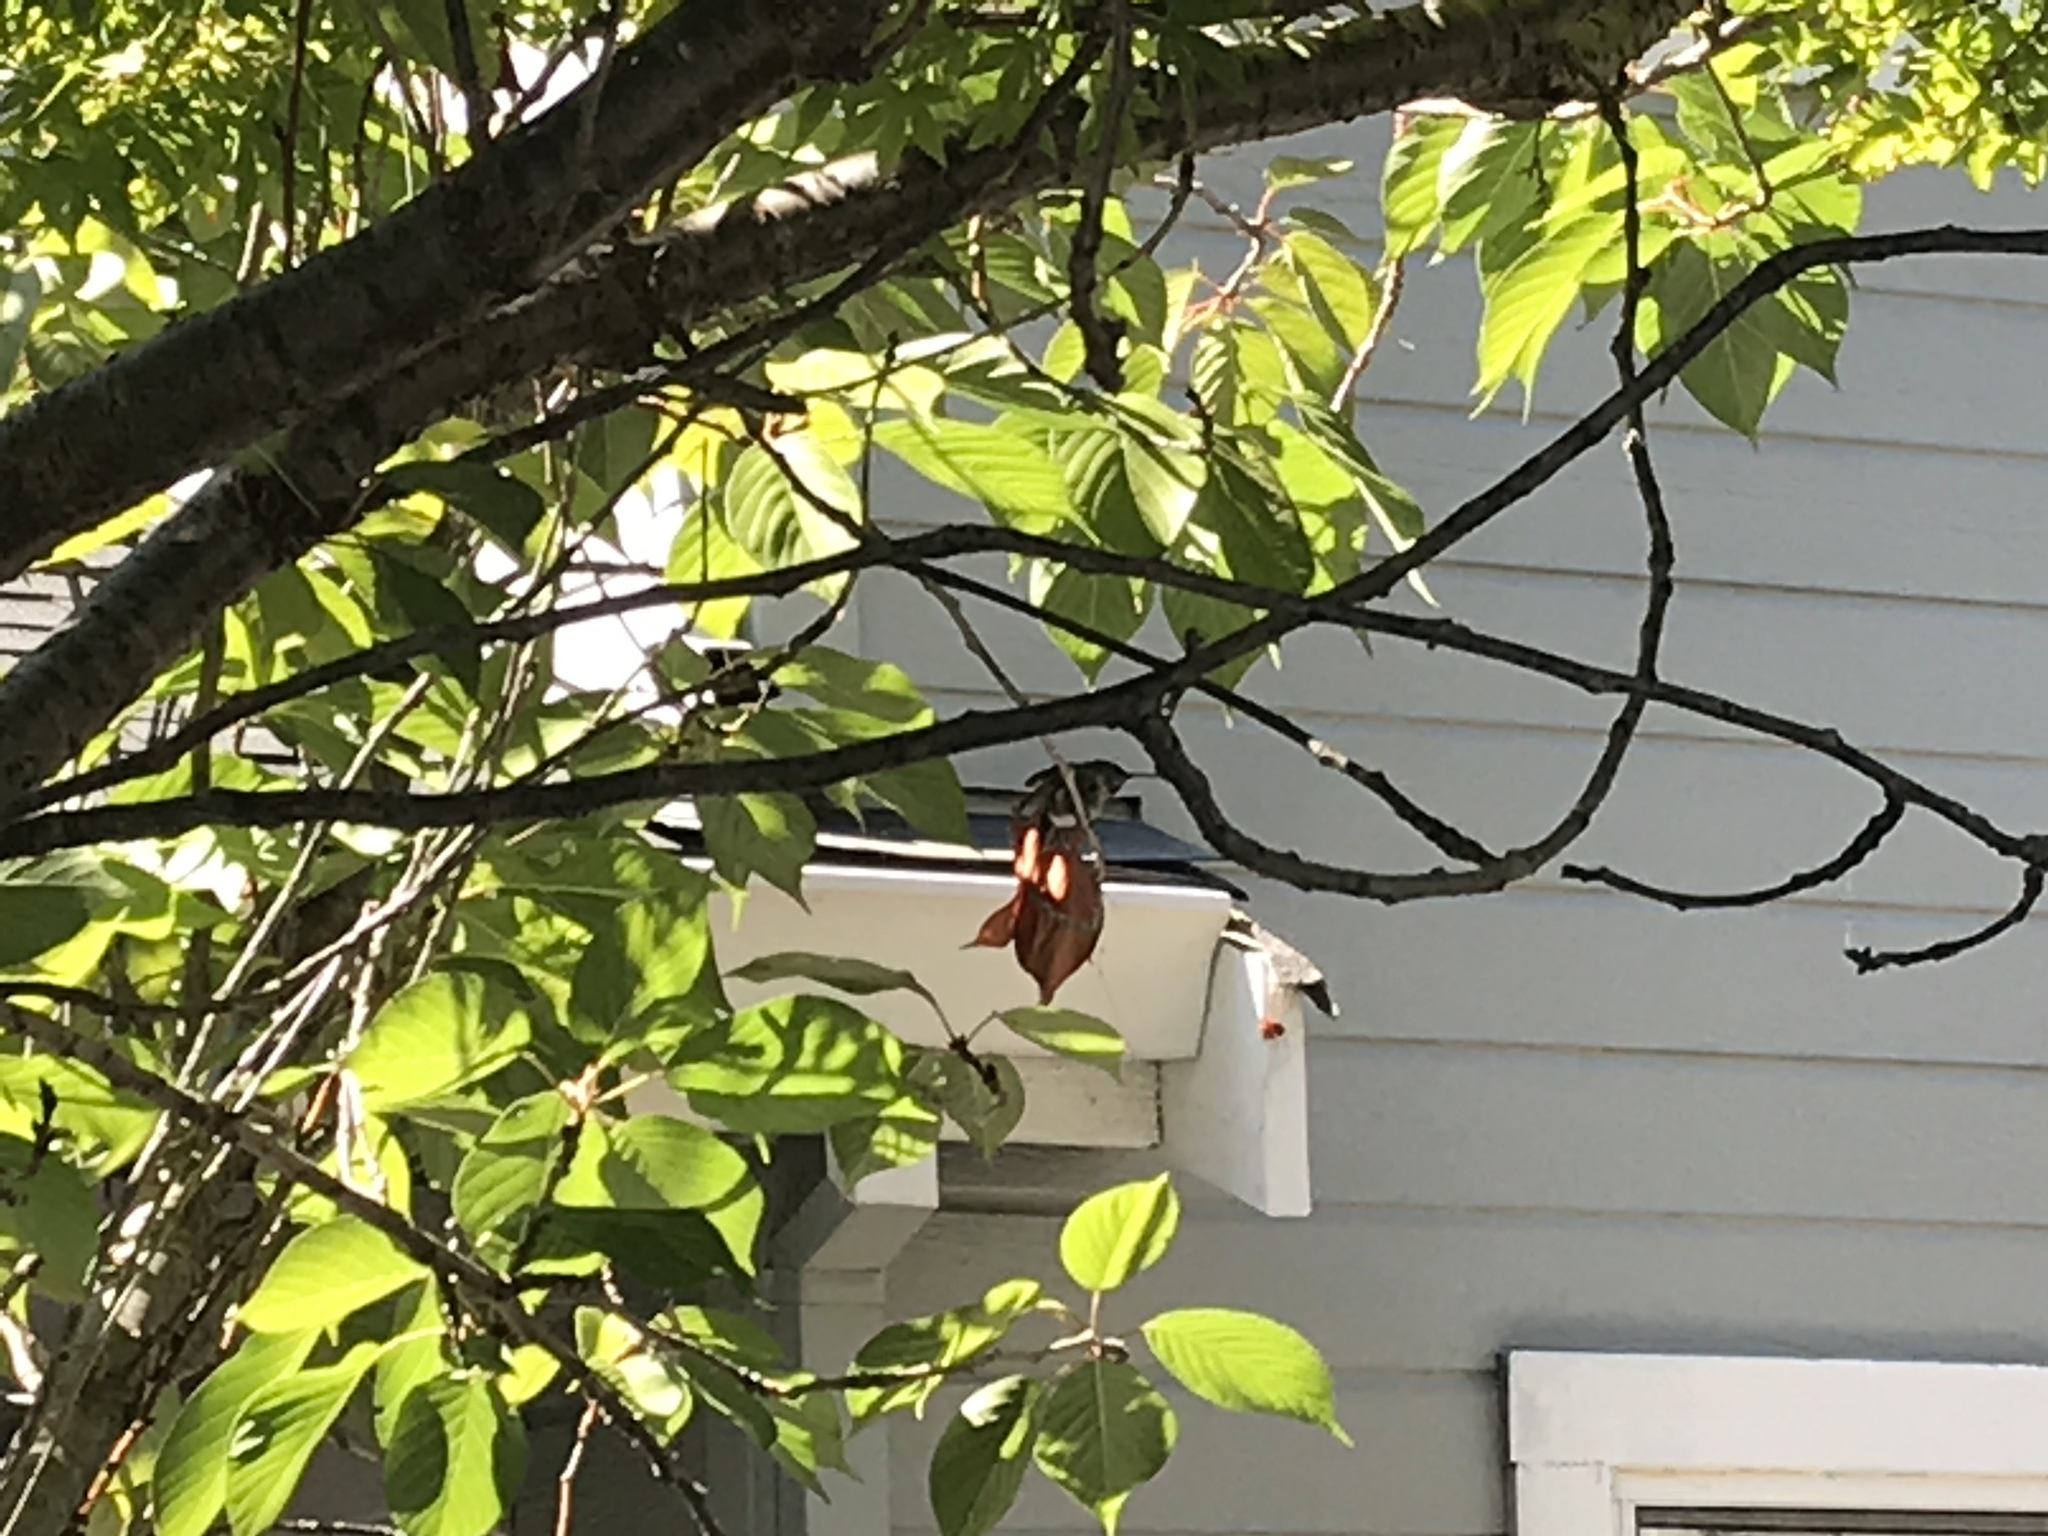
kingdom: Animalia
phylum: Chordata
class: Aves
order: Apodiformes
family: Trochilidae
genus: Calypte
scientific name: Calypte anna
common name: Anna's hummingbird
